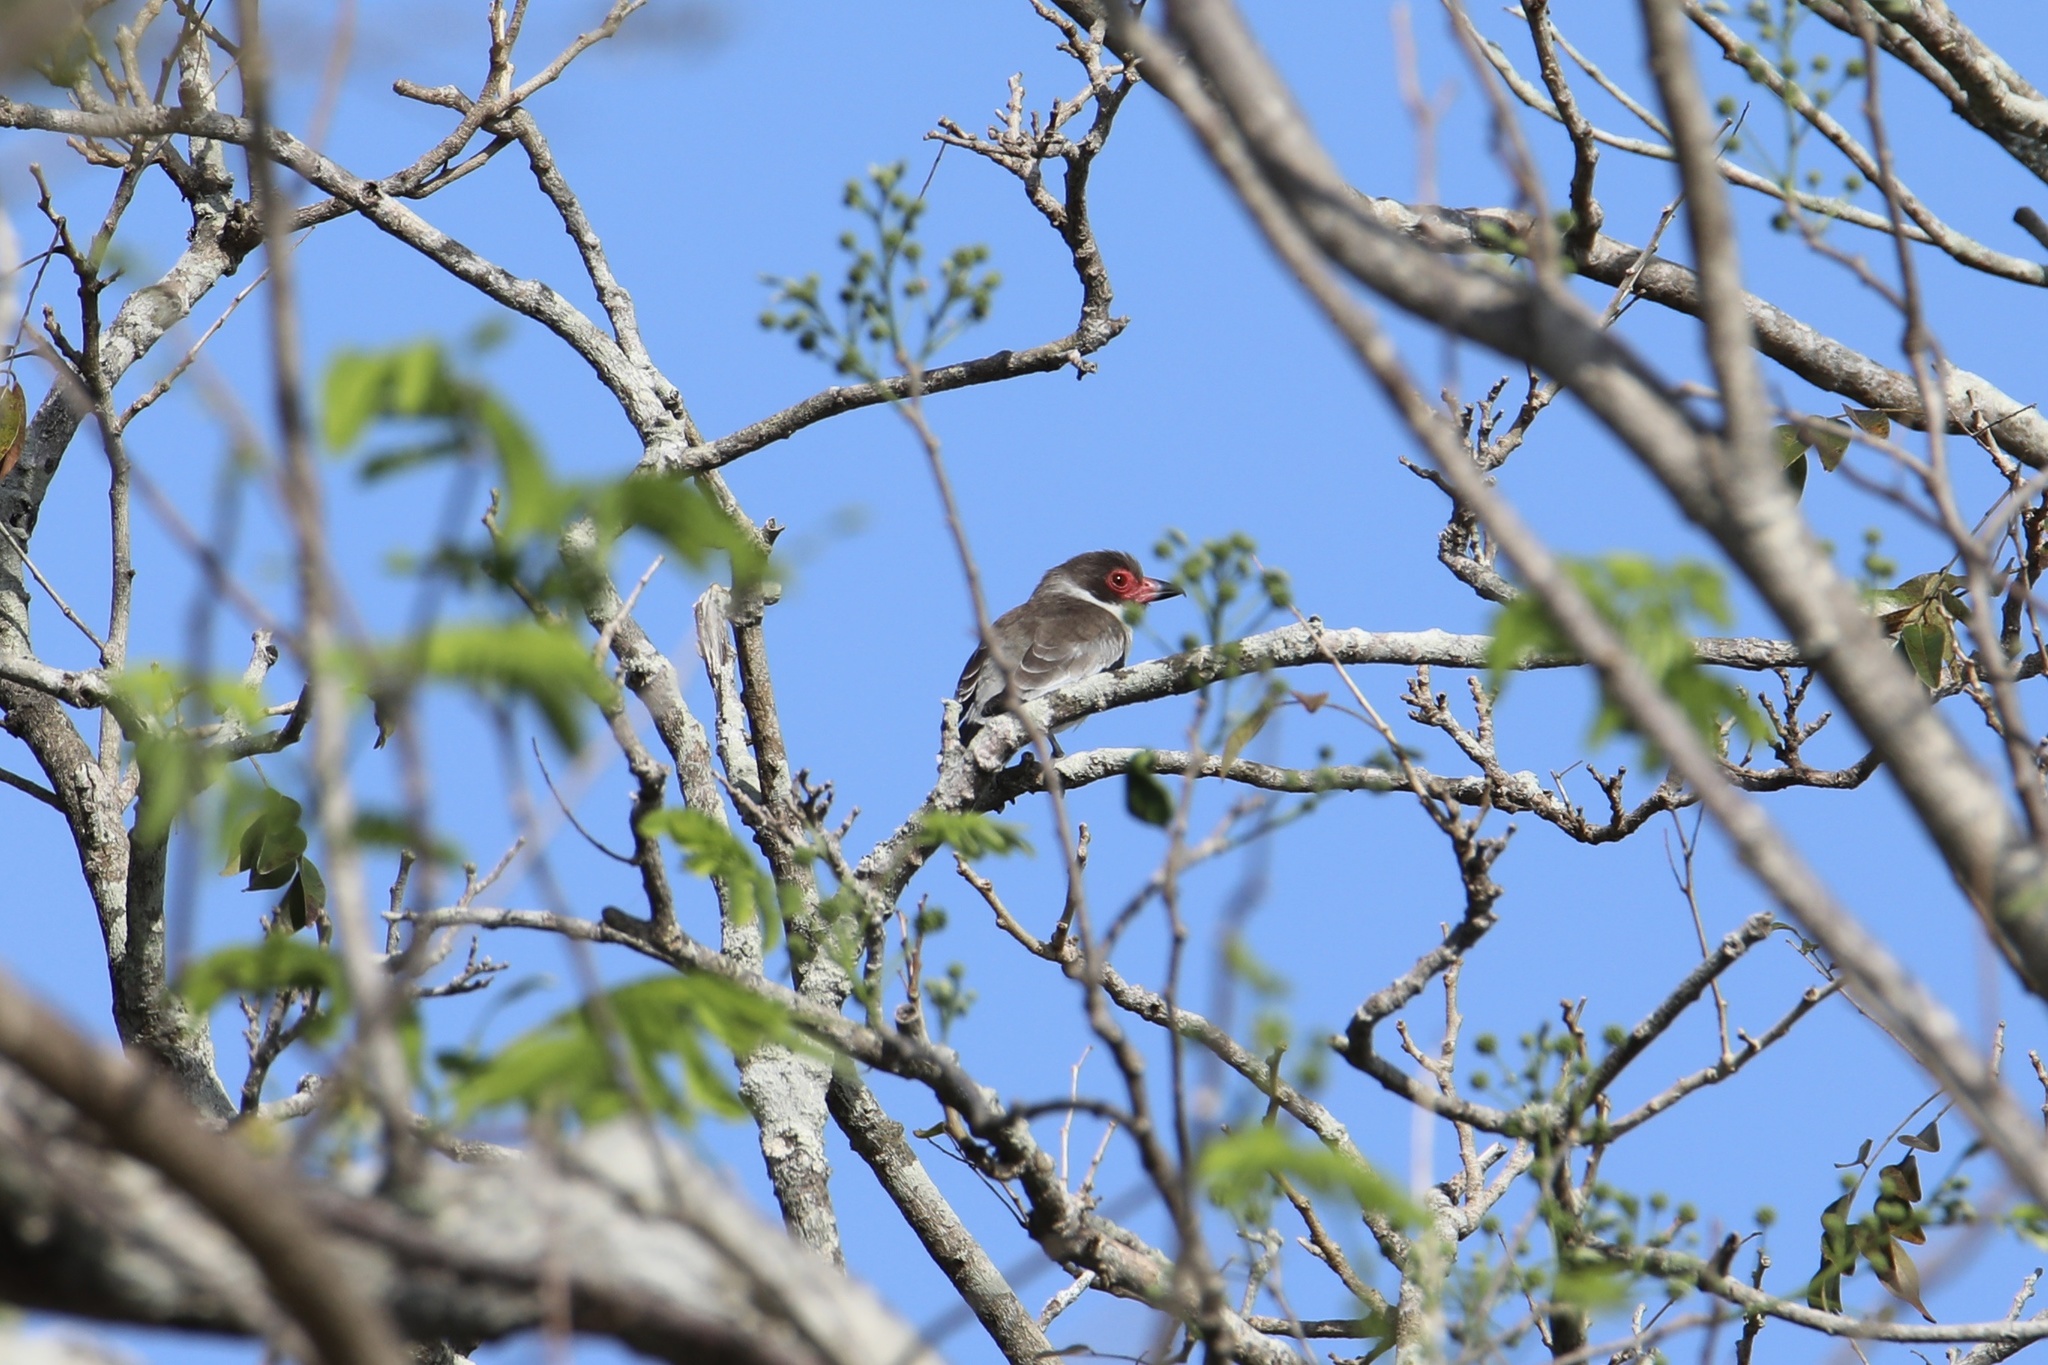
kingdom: Animalia
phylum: Chordata
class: Aves
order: Passeriformes
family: Cotingidae
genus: Tityra
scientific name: Tityra semifasciata
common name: Masked tityra
